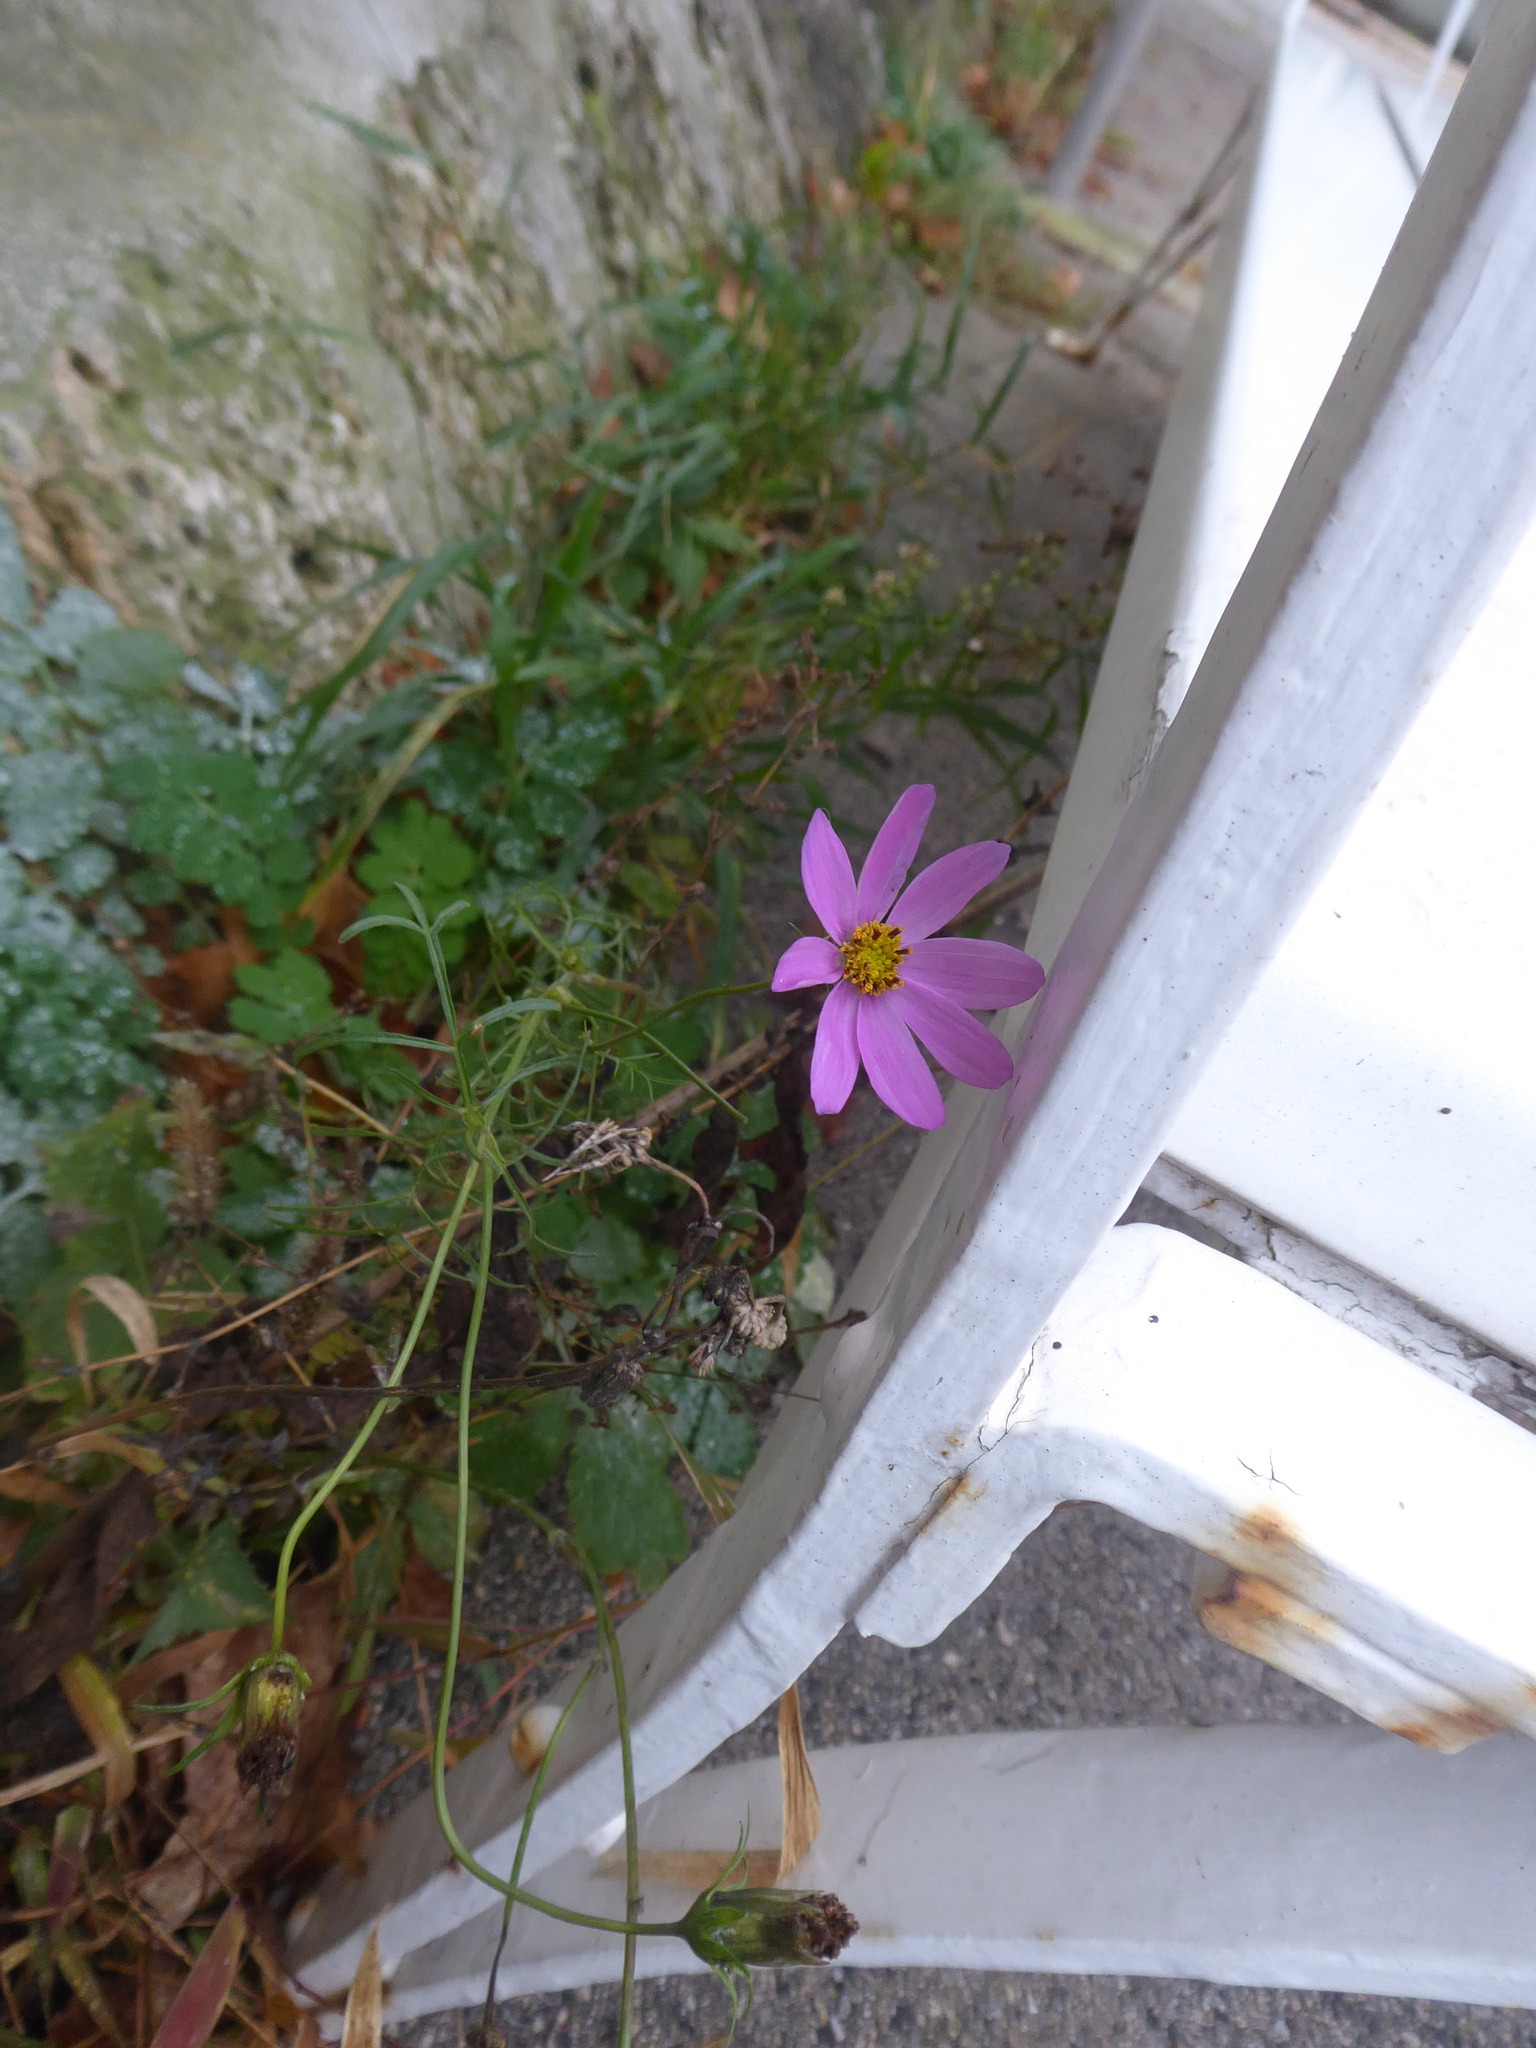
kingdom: Plantae
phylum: Tracheophyta
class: Magnoliopsida
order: Asterales
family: Asteraceae
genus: Cosmos
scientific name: Cosmos bipinnatus
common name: Garden cosmos
